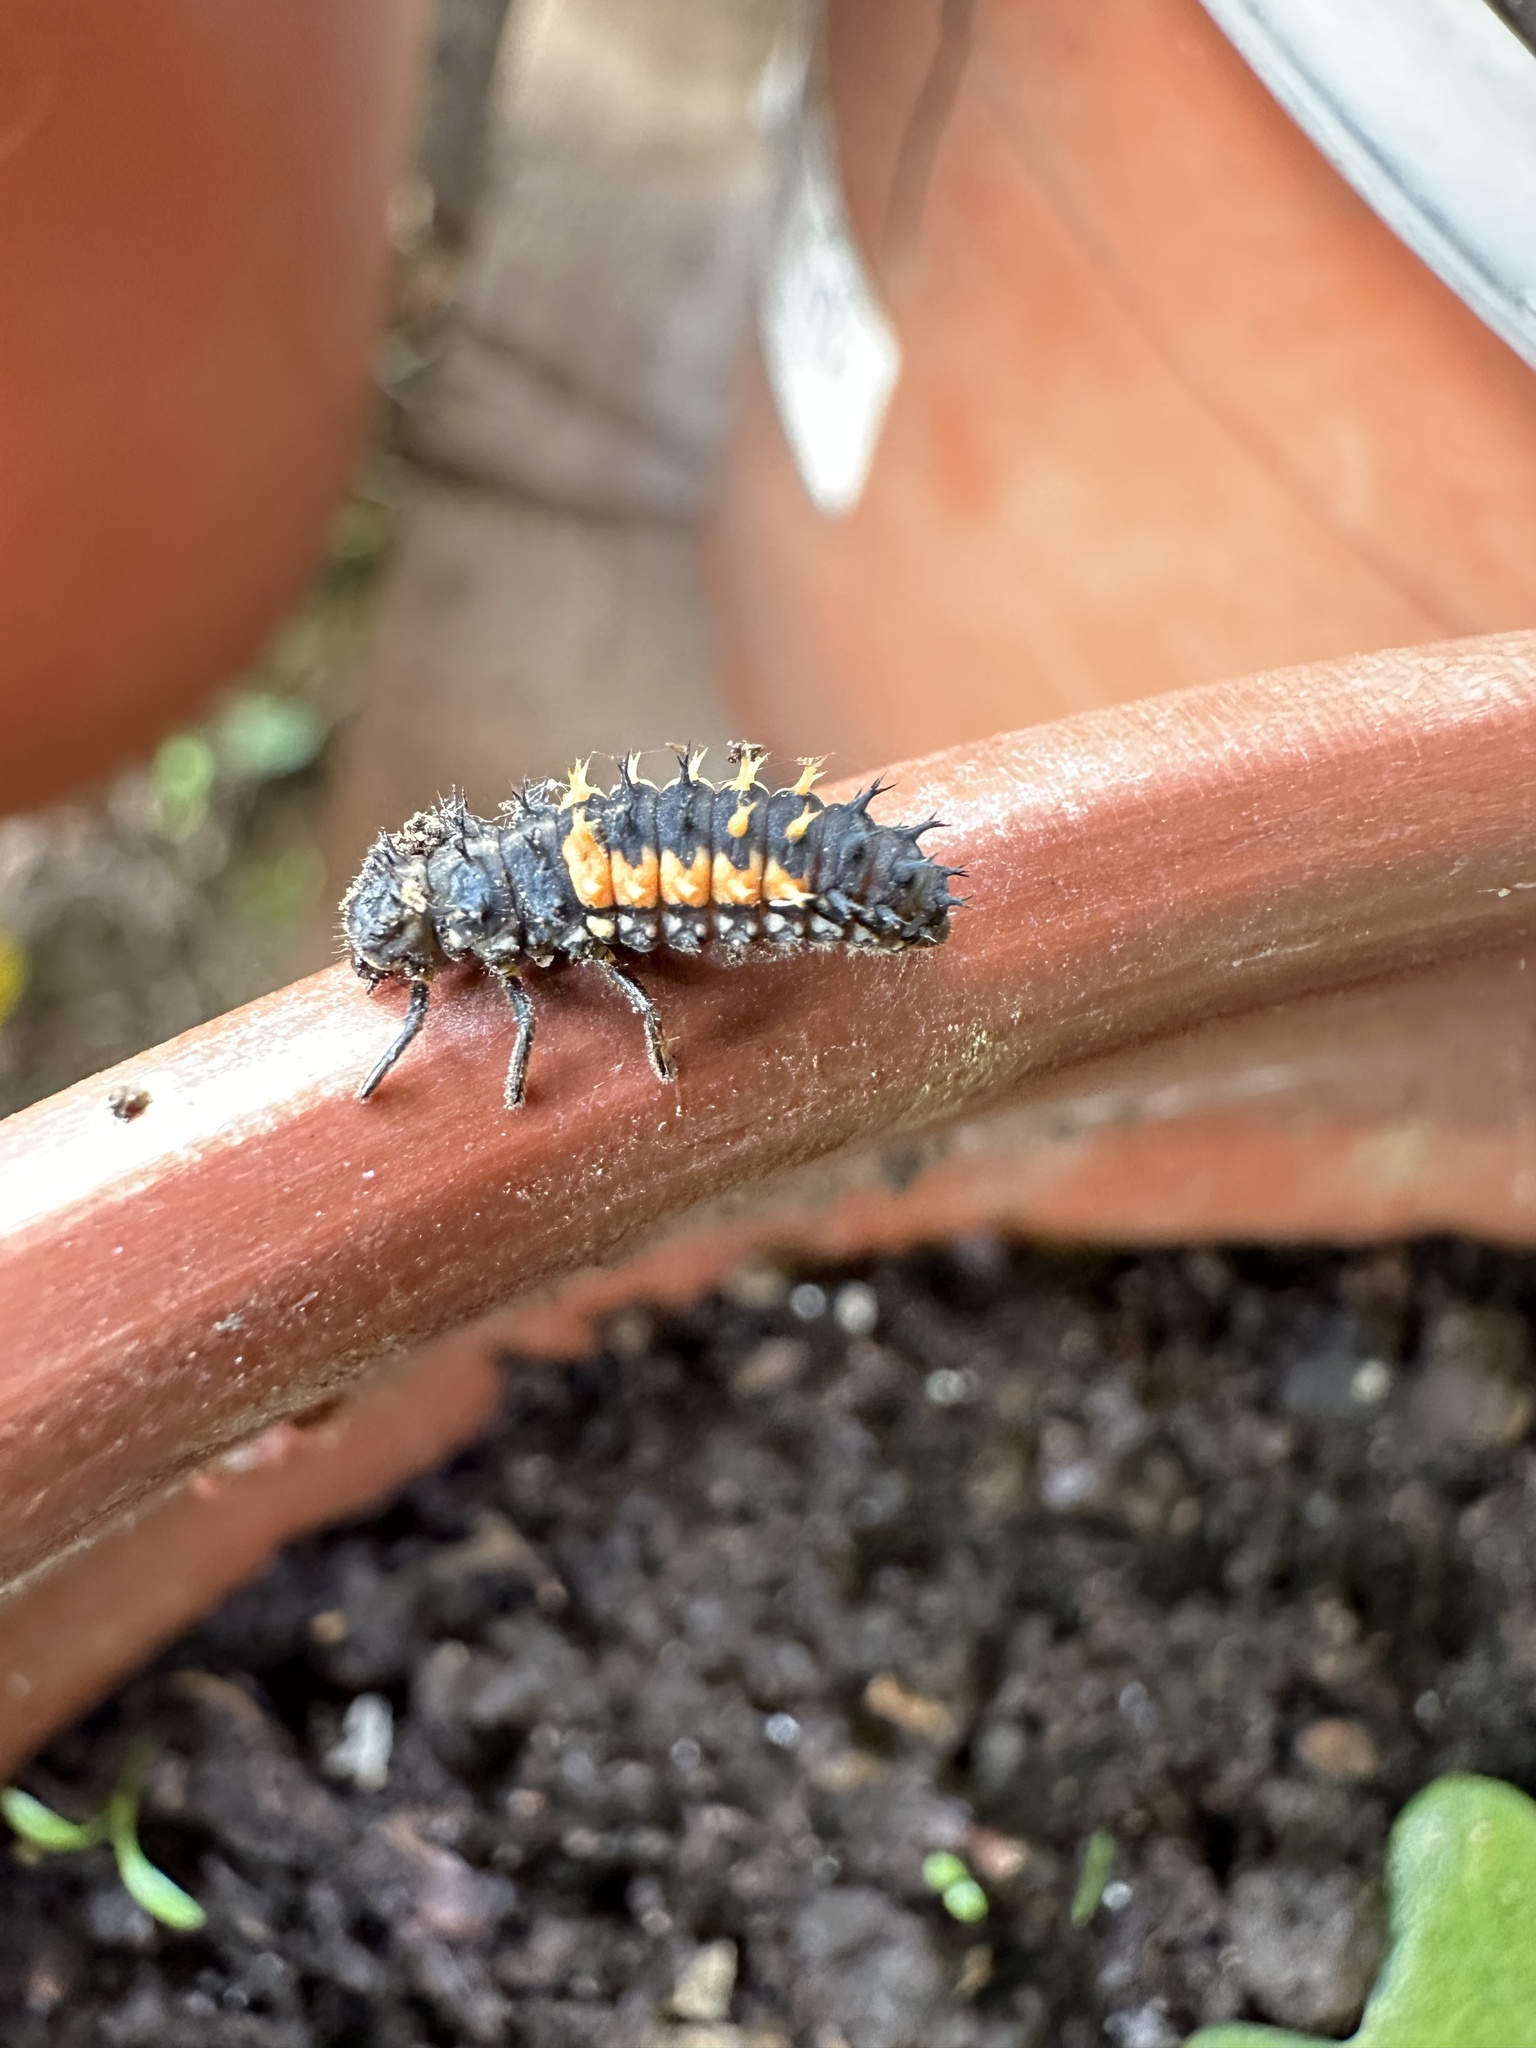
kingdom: Animalia
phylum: Arthropoda
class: Insecta
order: Coleoptera
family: Coccinellidae
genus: Harmonia
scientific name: Harmonia axyridis
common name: Harlequin ladybird
